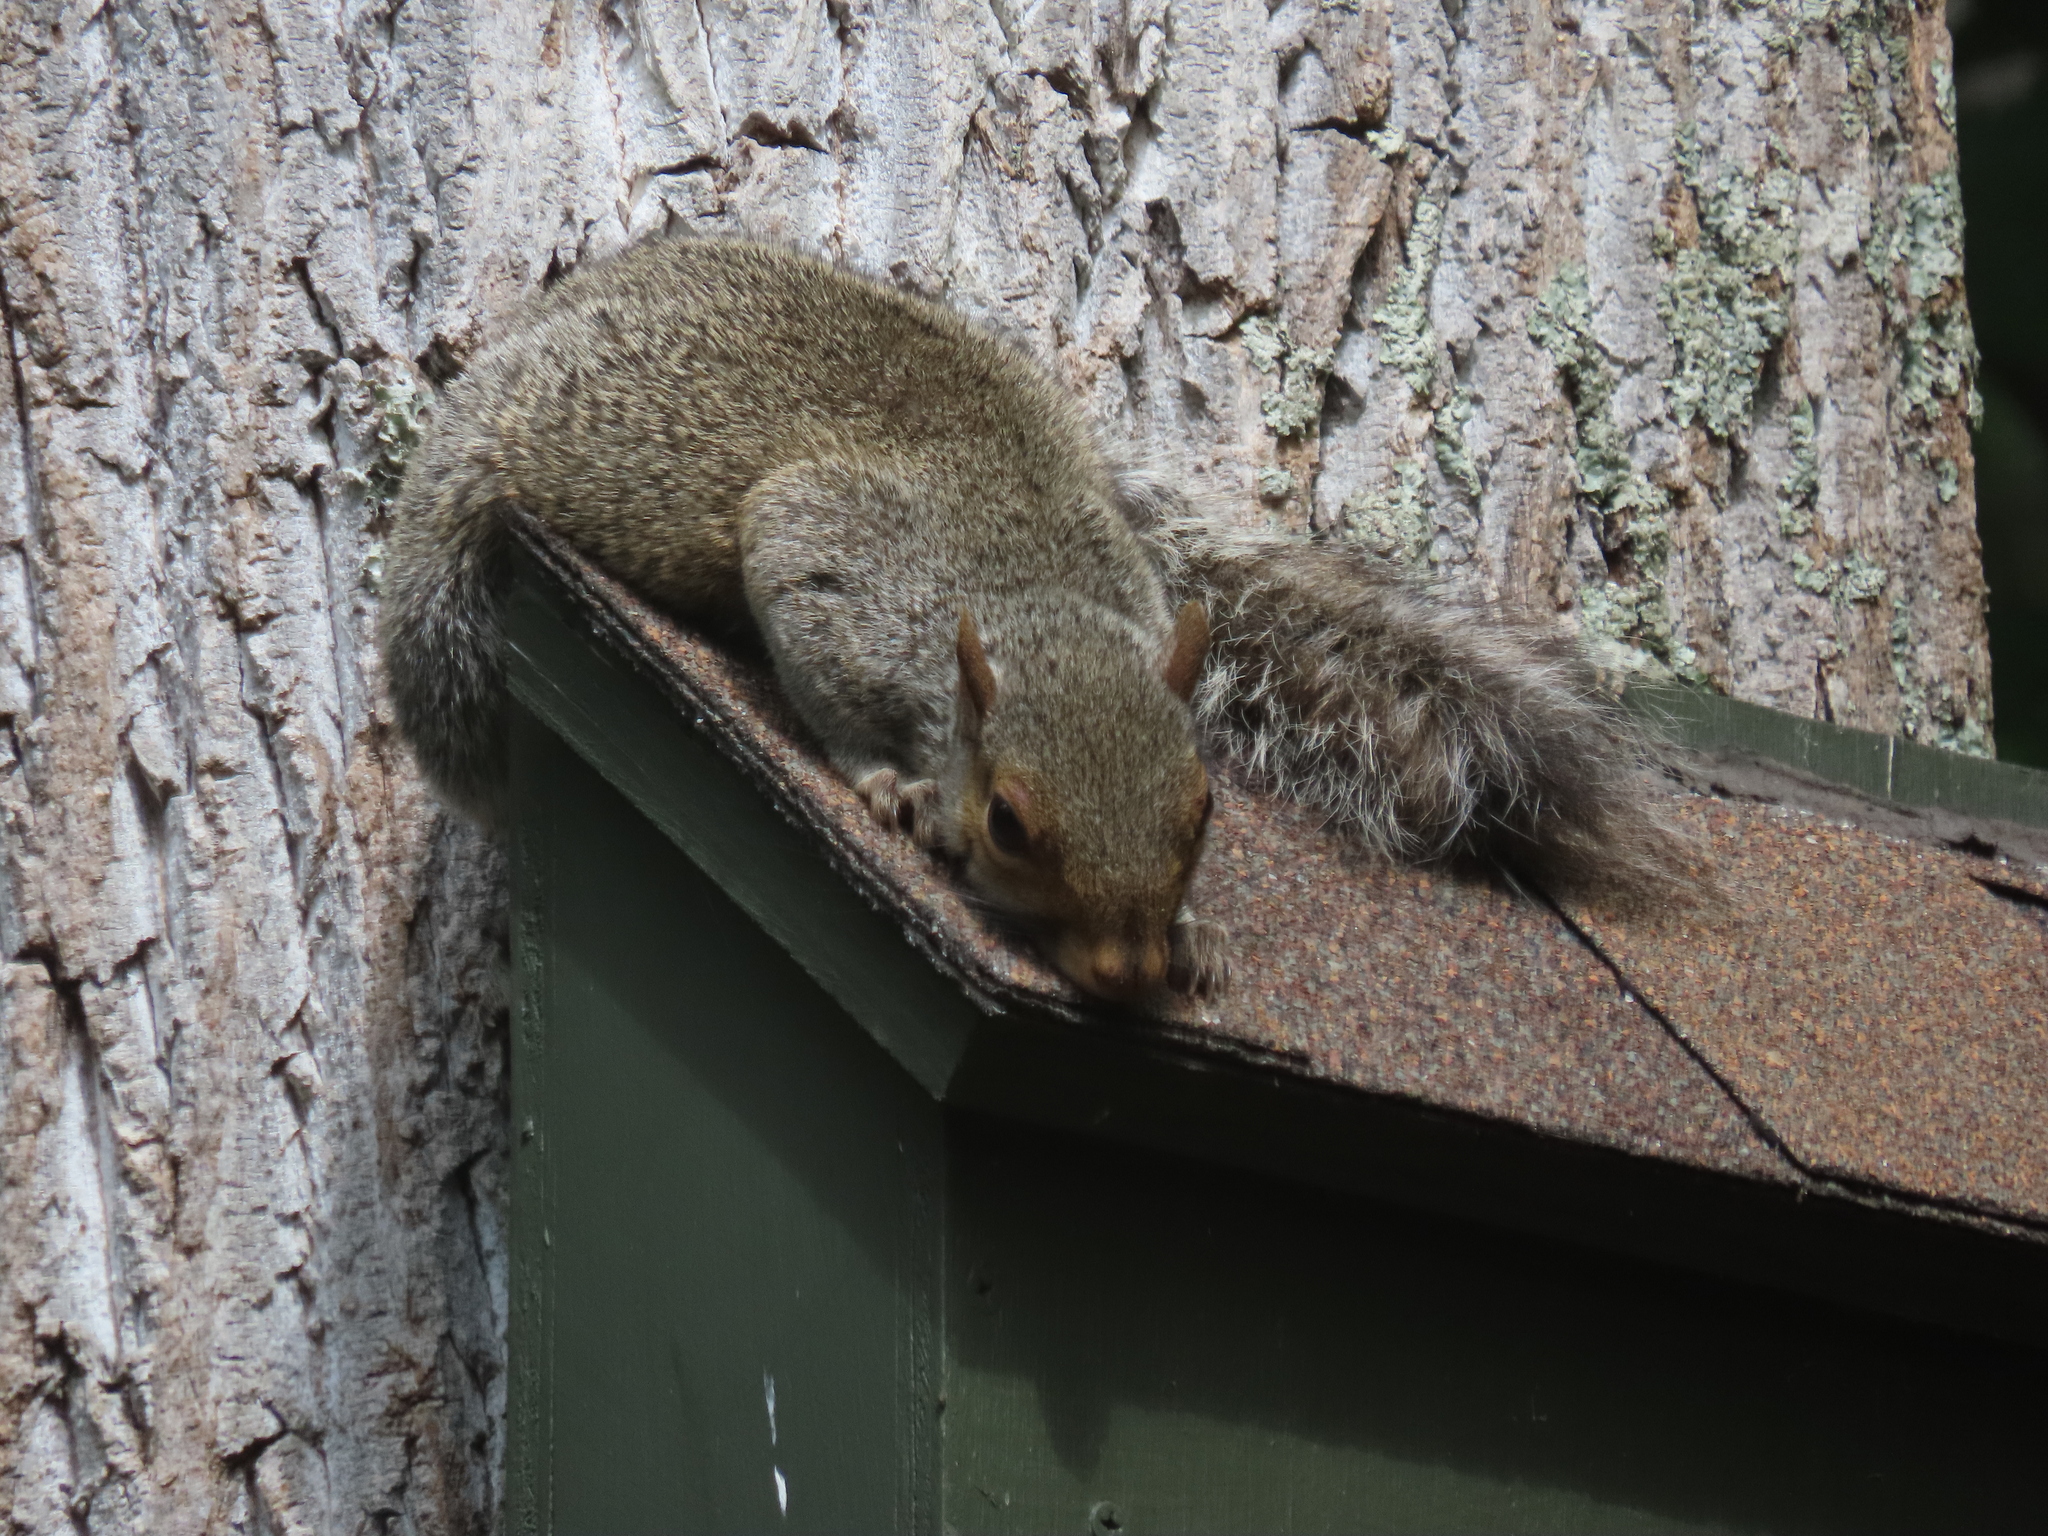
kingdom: Animalia
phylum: Chordata
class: Mammalia
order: Rodentia
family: Sciuridae
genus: Sciurus
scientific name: Sciurus carolinensis
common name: Eastern gray squirrel
